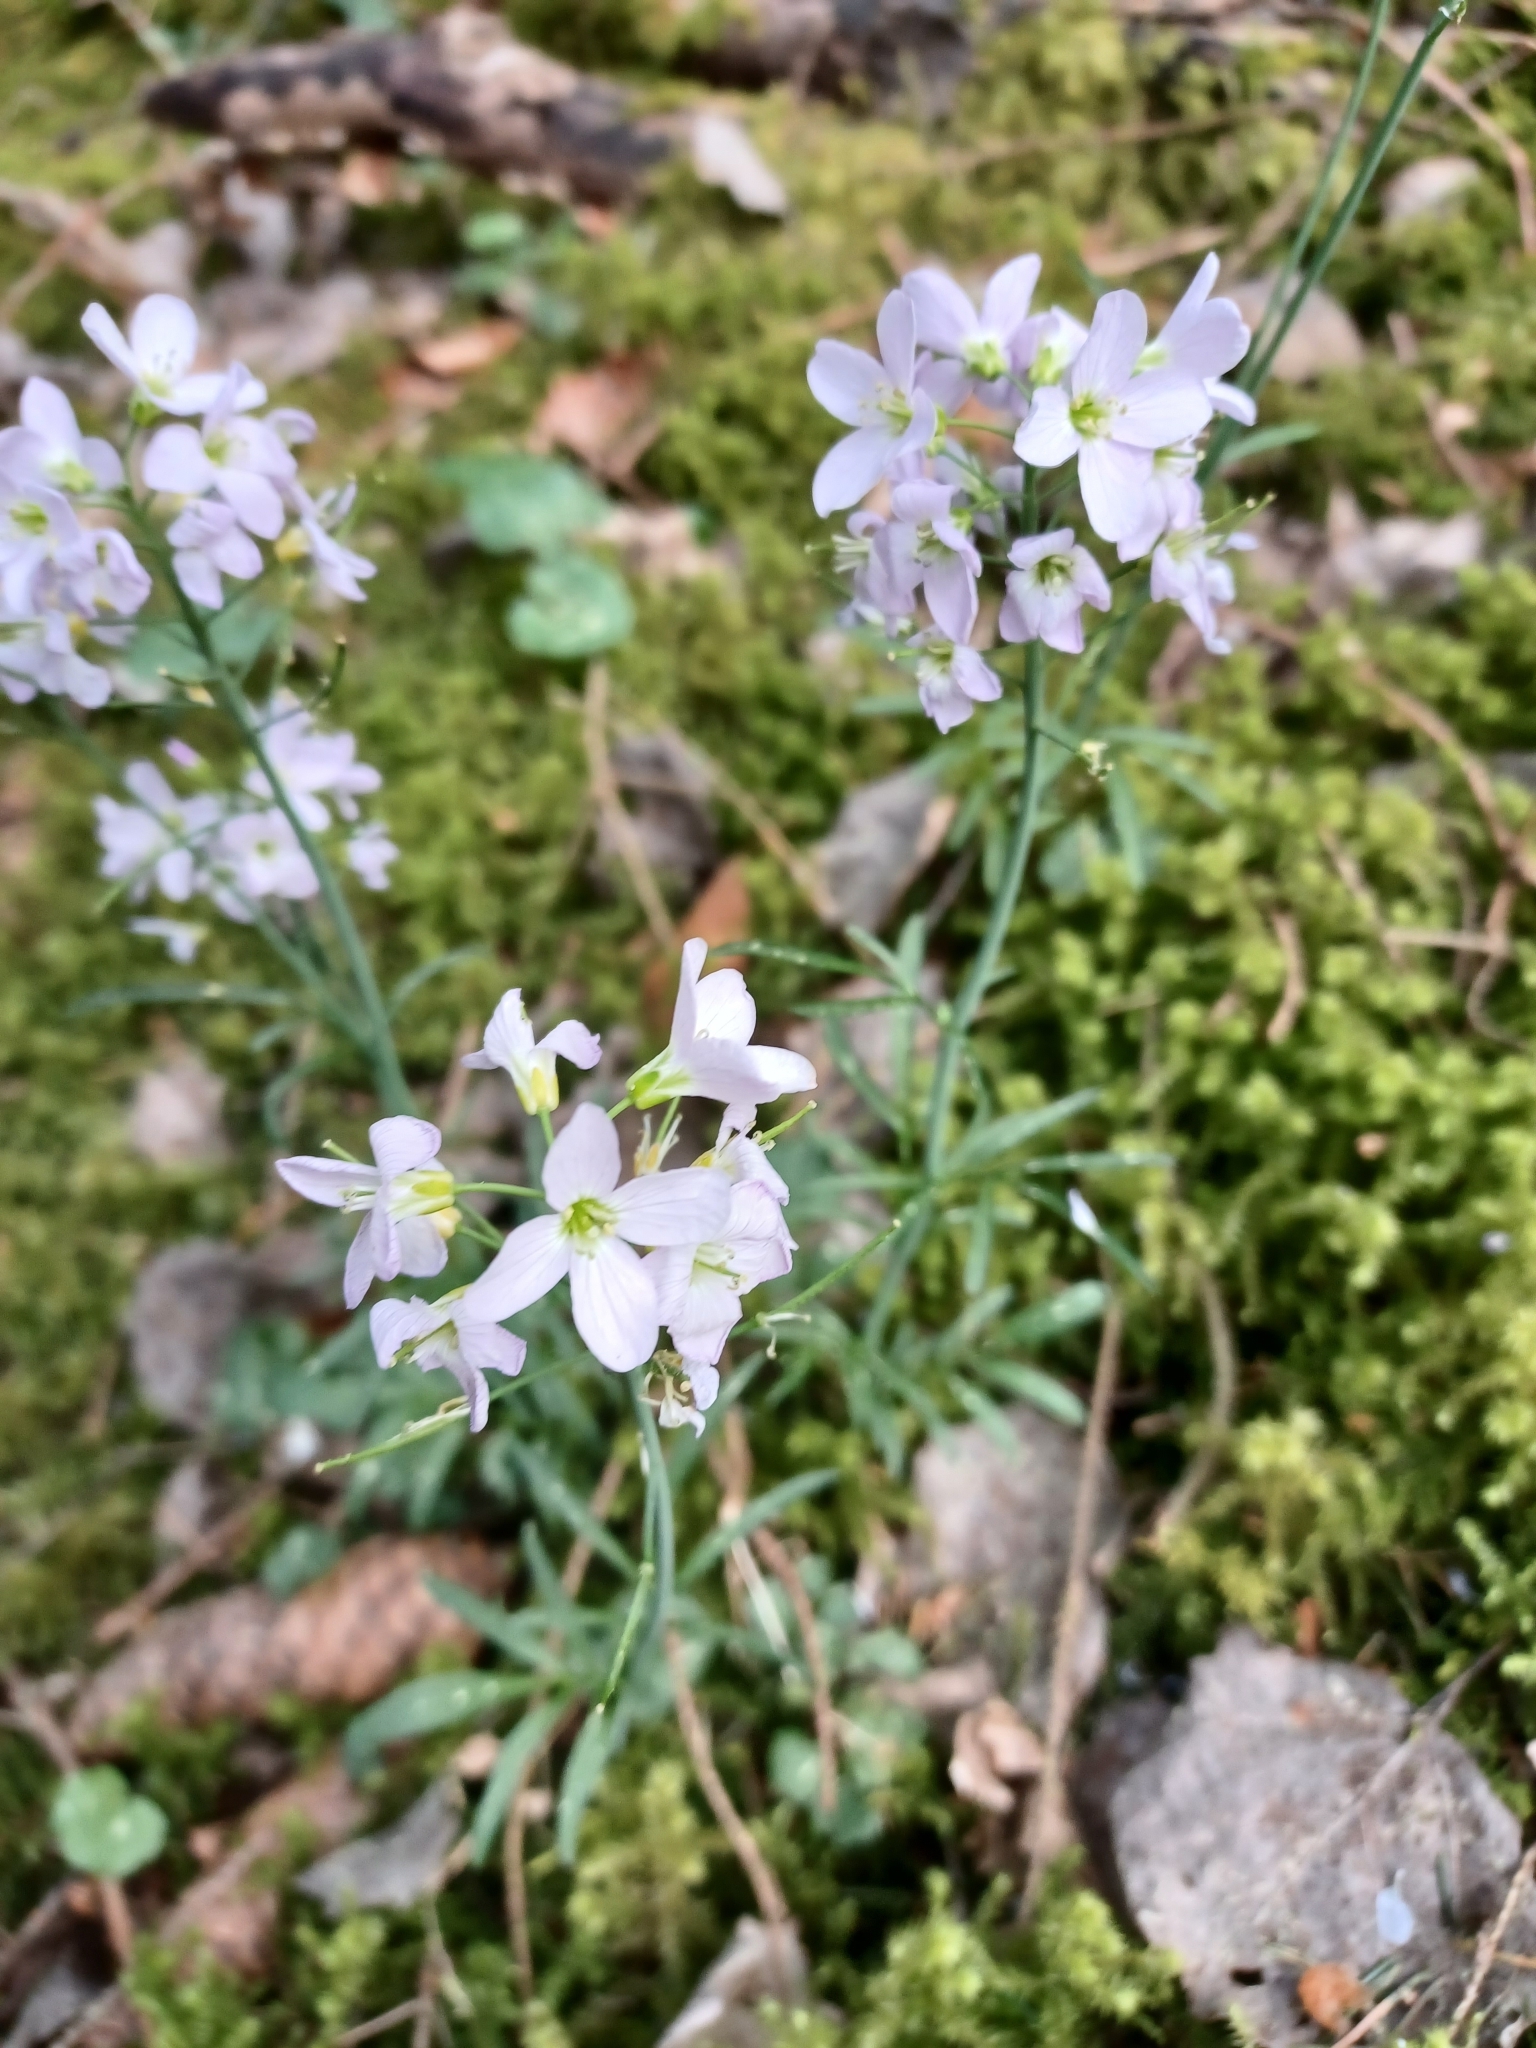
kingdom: Plantae
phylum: Tracheophyta
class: Magnoliopsida
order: Brassicales
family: Brassicaceae
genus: Cardamine
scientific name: Cardamine pratensis
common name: Cuckoo flower
